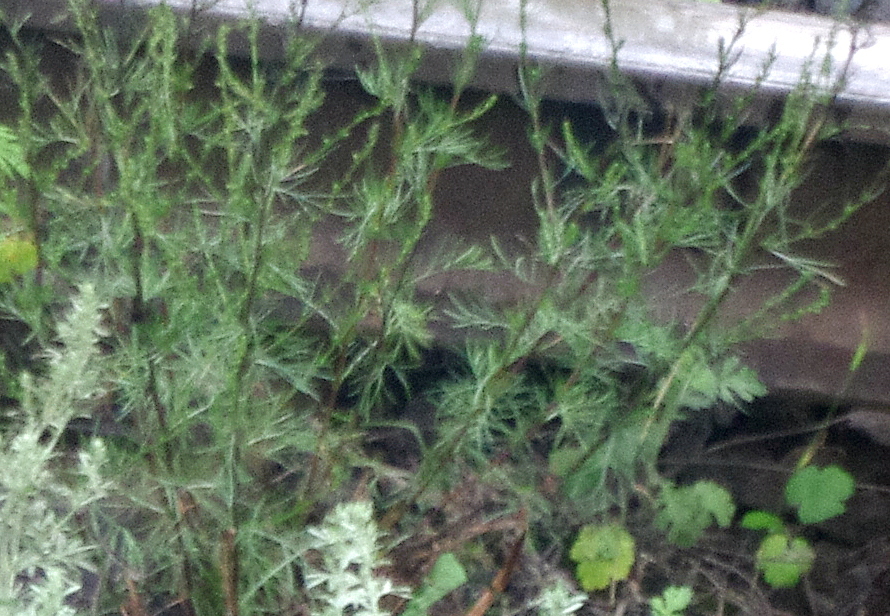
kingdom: Plantae
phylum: Tracheophyta
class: Magnoliopsida
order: Asterales
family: Asteraceae
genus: Artemisia
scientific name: Artemisia campestris
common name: Field wormwood
